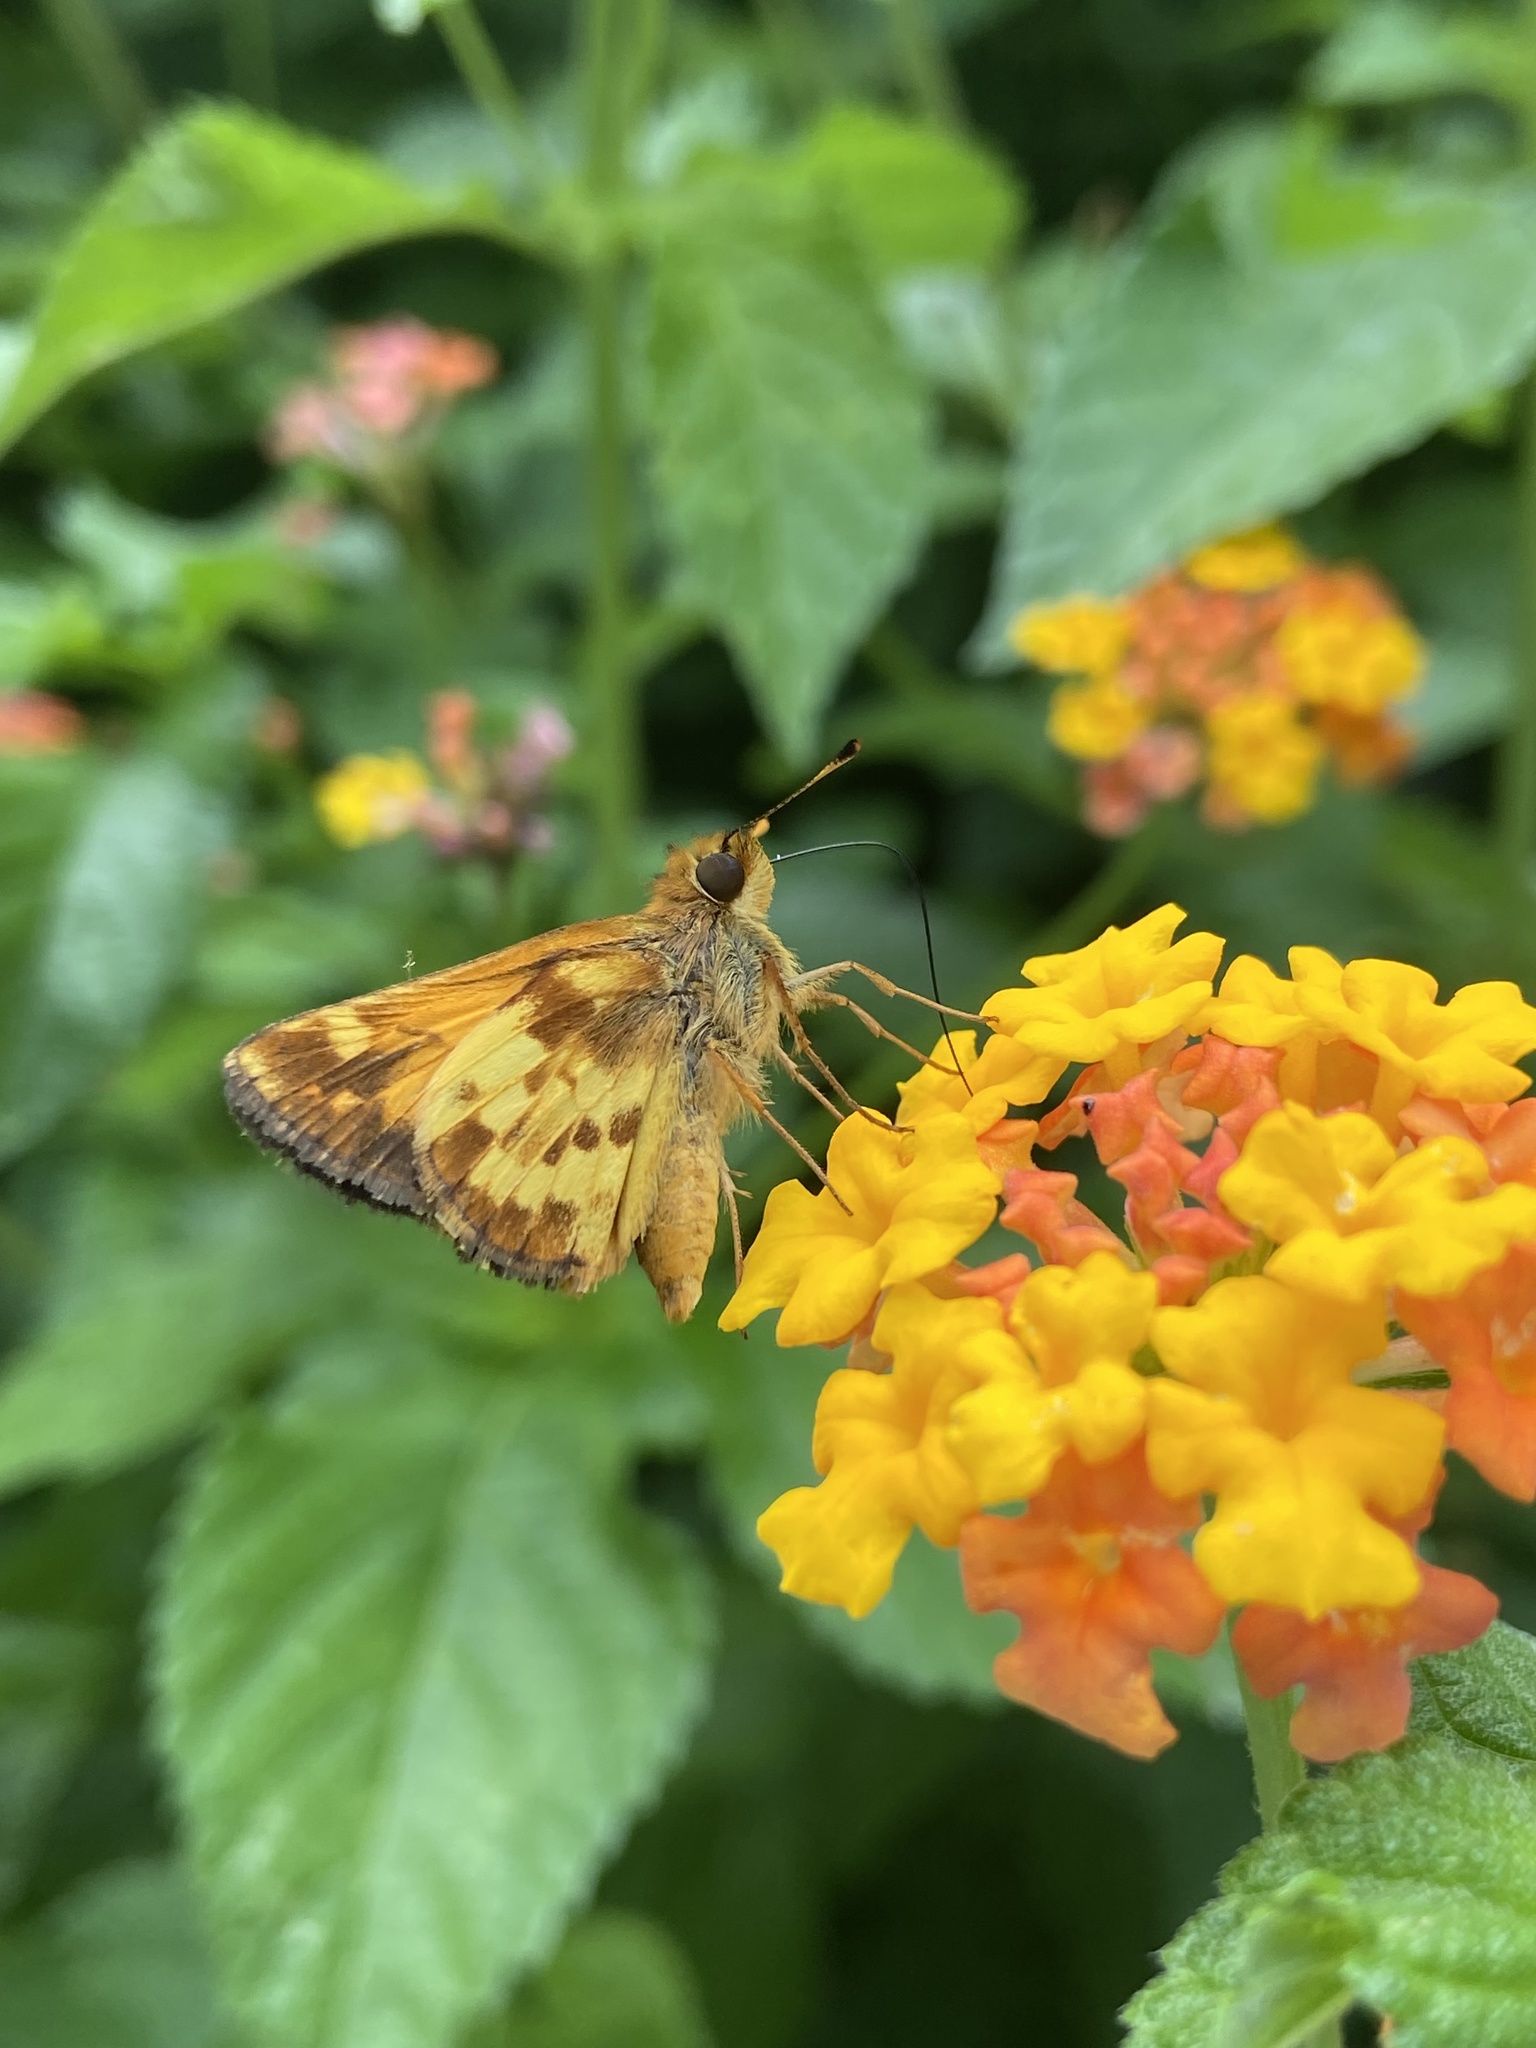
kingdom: Animalia
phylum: Arthropoda
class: Insecta
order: Lepidoptera
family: Hesperiidae
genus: Lon
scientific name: Lon zabulon
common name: Zabulon skipper
